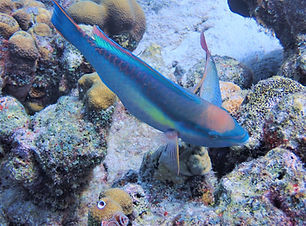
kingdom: Animalia
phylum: Chordata
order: Perciformes
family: Scaridae
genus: Scarus
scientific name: Scarus taeniopterus
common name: Princess parrotfish
